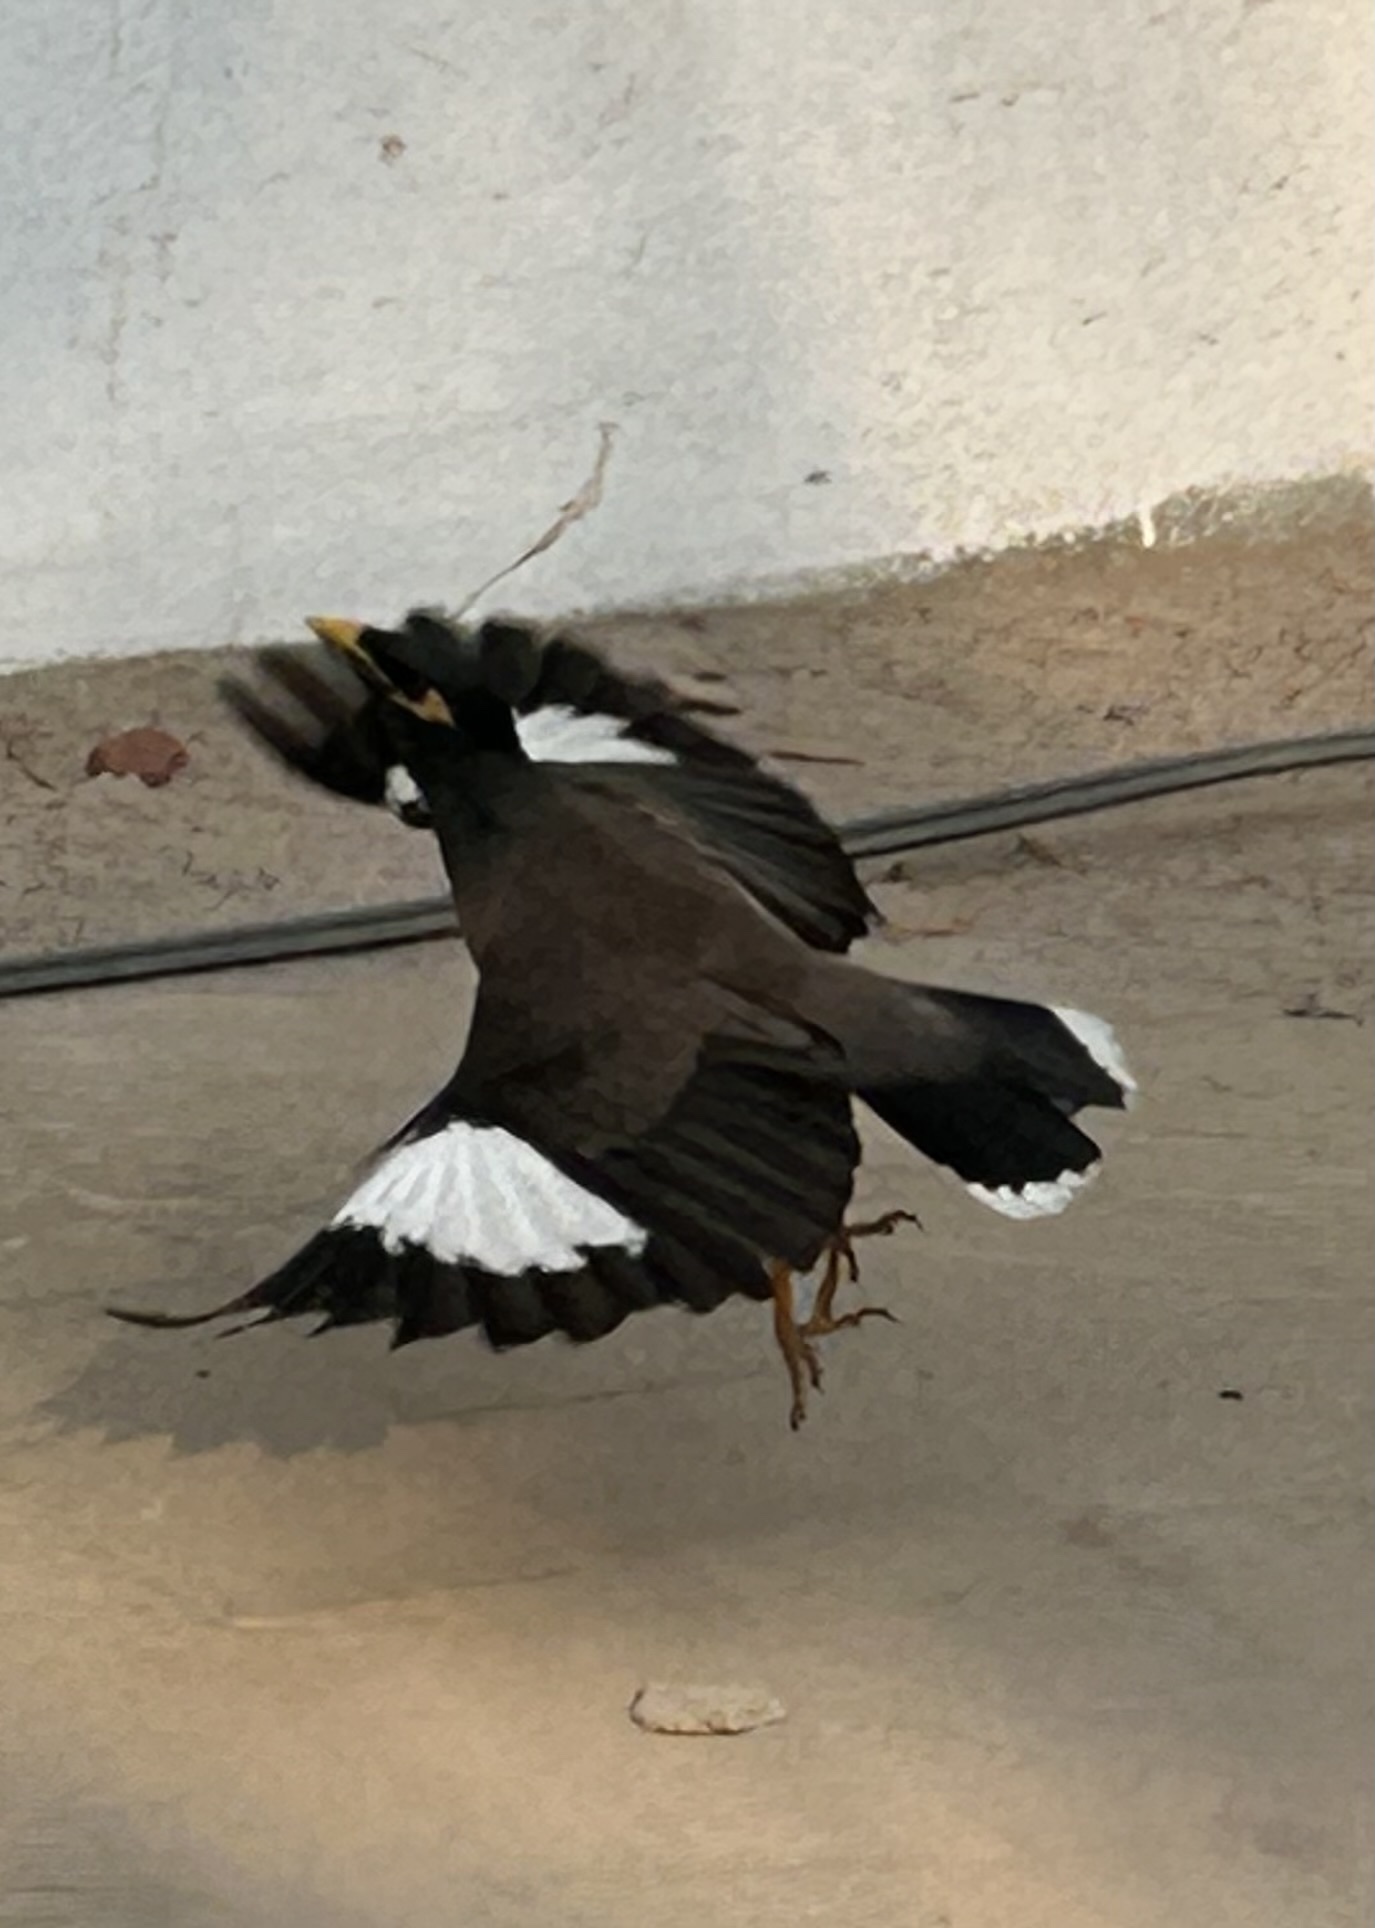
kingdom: Animalia
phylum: Chordata
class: Aves
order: Passeriformes
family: Sturnidae
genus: Acridotheres
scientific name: Acridotheres tristis
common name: Common myna
